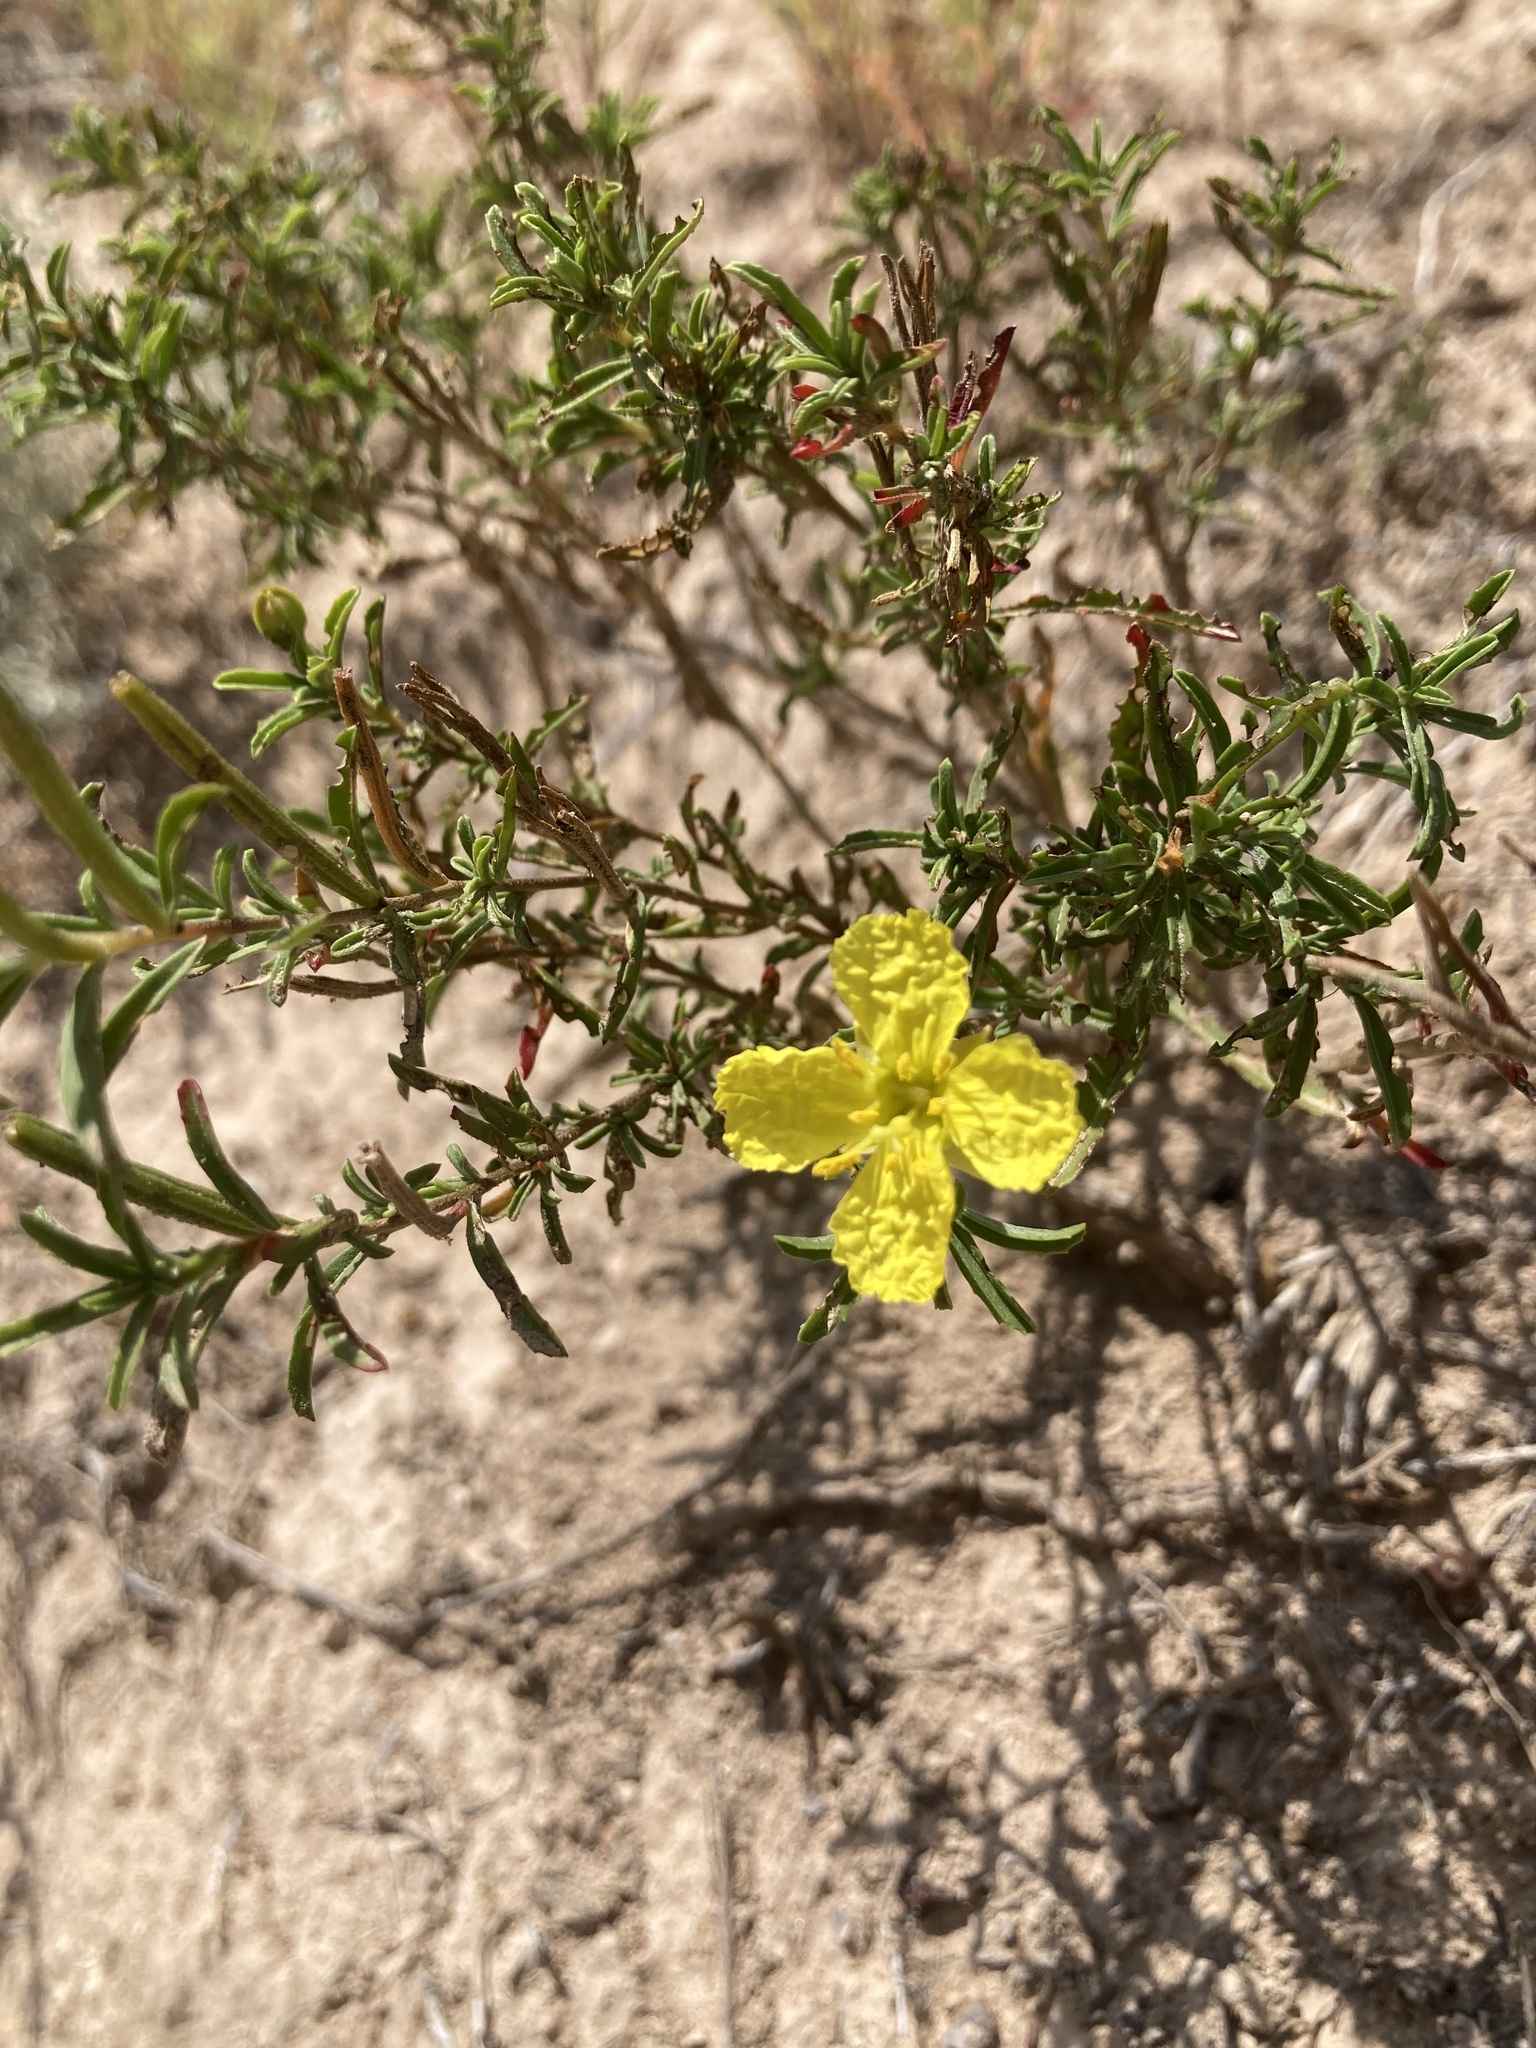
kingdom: Plantae
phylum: Tracheophyta
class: Magnoliopsida
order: Myrtales
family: Onagraceae
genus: Oenothera
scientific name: Oenothera serrulata
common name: Half-shrub calylophus
